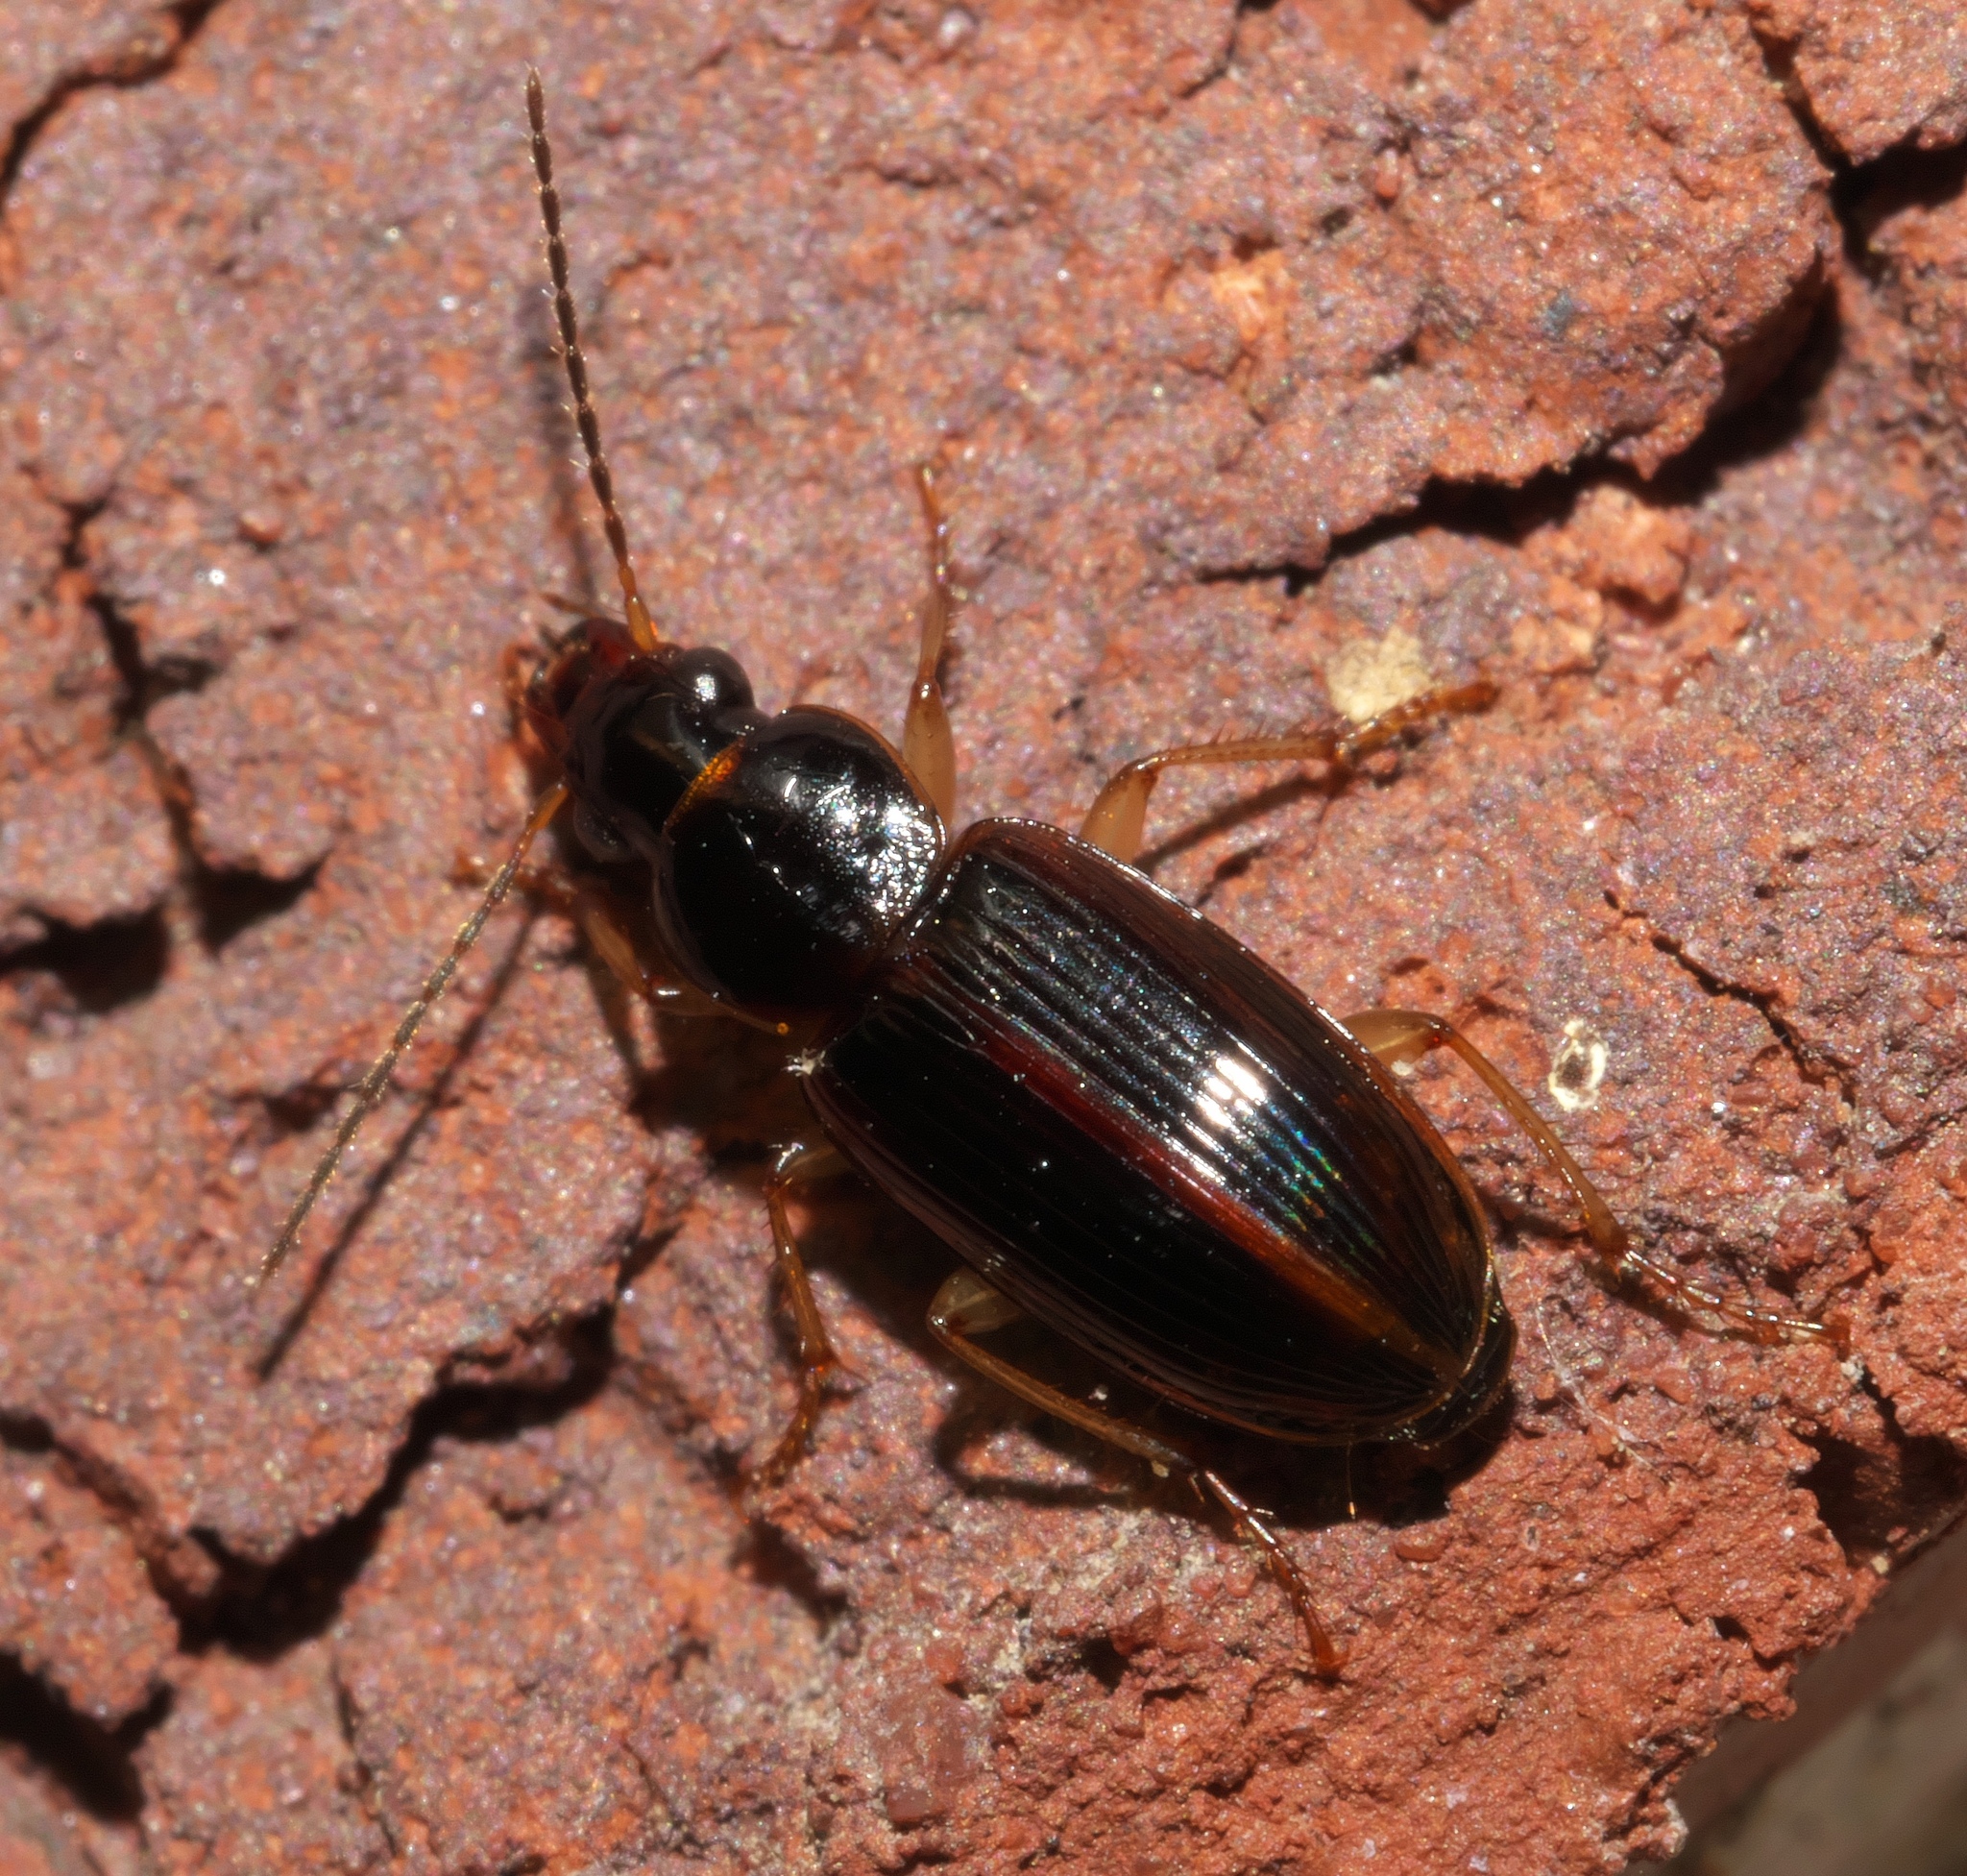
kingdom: Animalia
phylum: Arthropoda
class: Insecta
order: Coleoptera
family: Carabidae
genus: Stenolophus
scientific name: Stenolophus ochropezus
